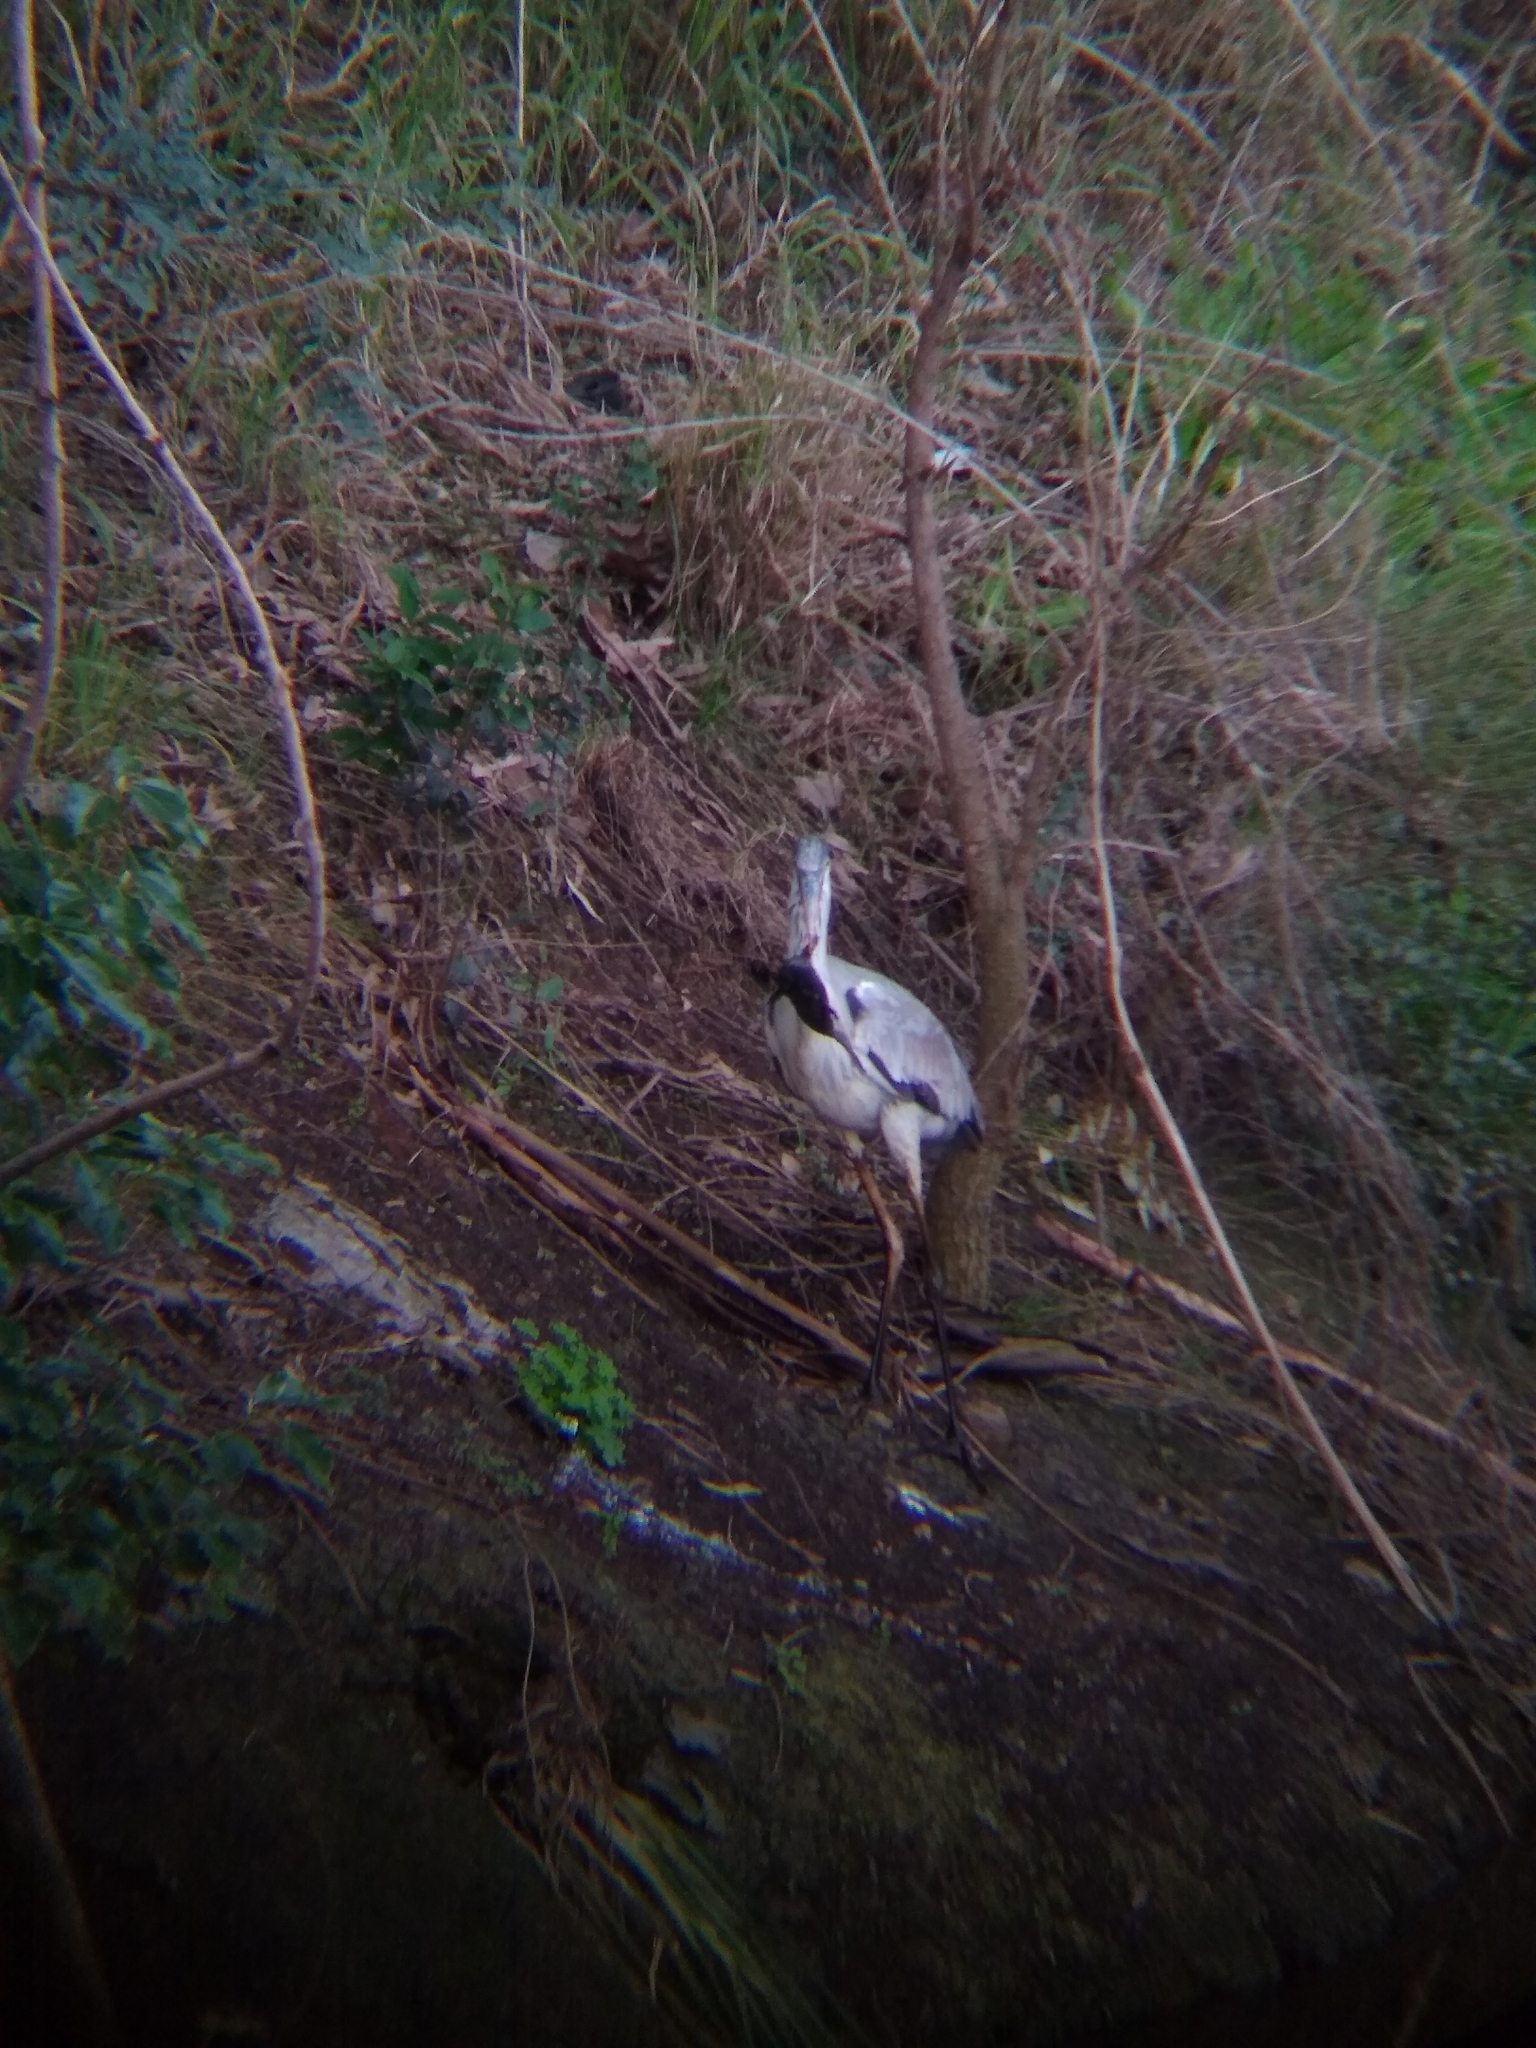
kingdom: Animalia
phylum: Chordata
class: Aves
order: Pelecaniformes
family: Ardeidae
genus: Ardea
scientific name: Ardea cocoi
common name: Cocoi heron
